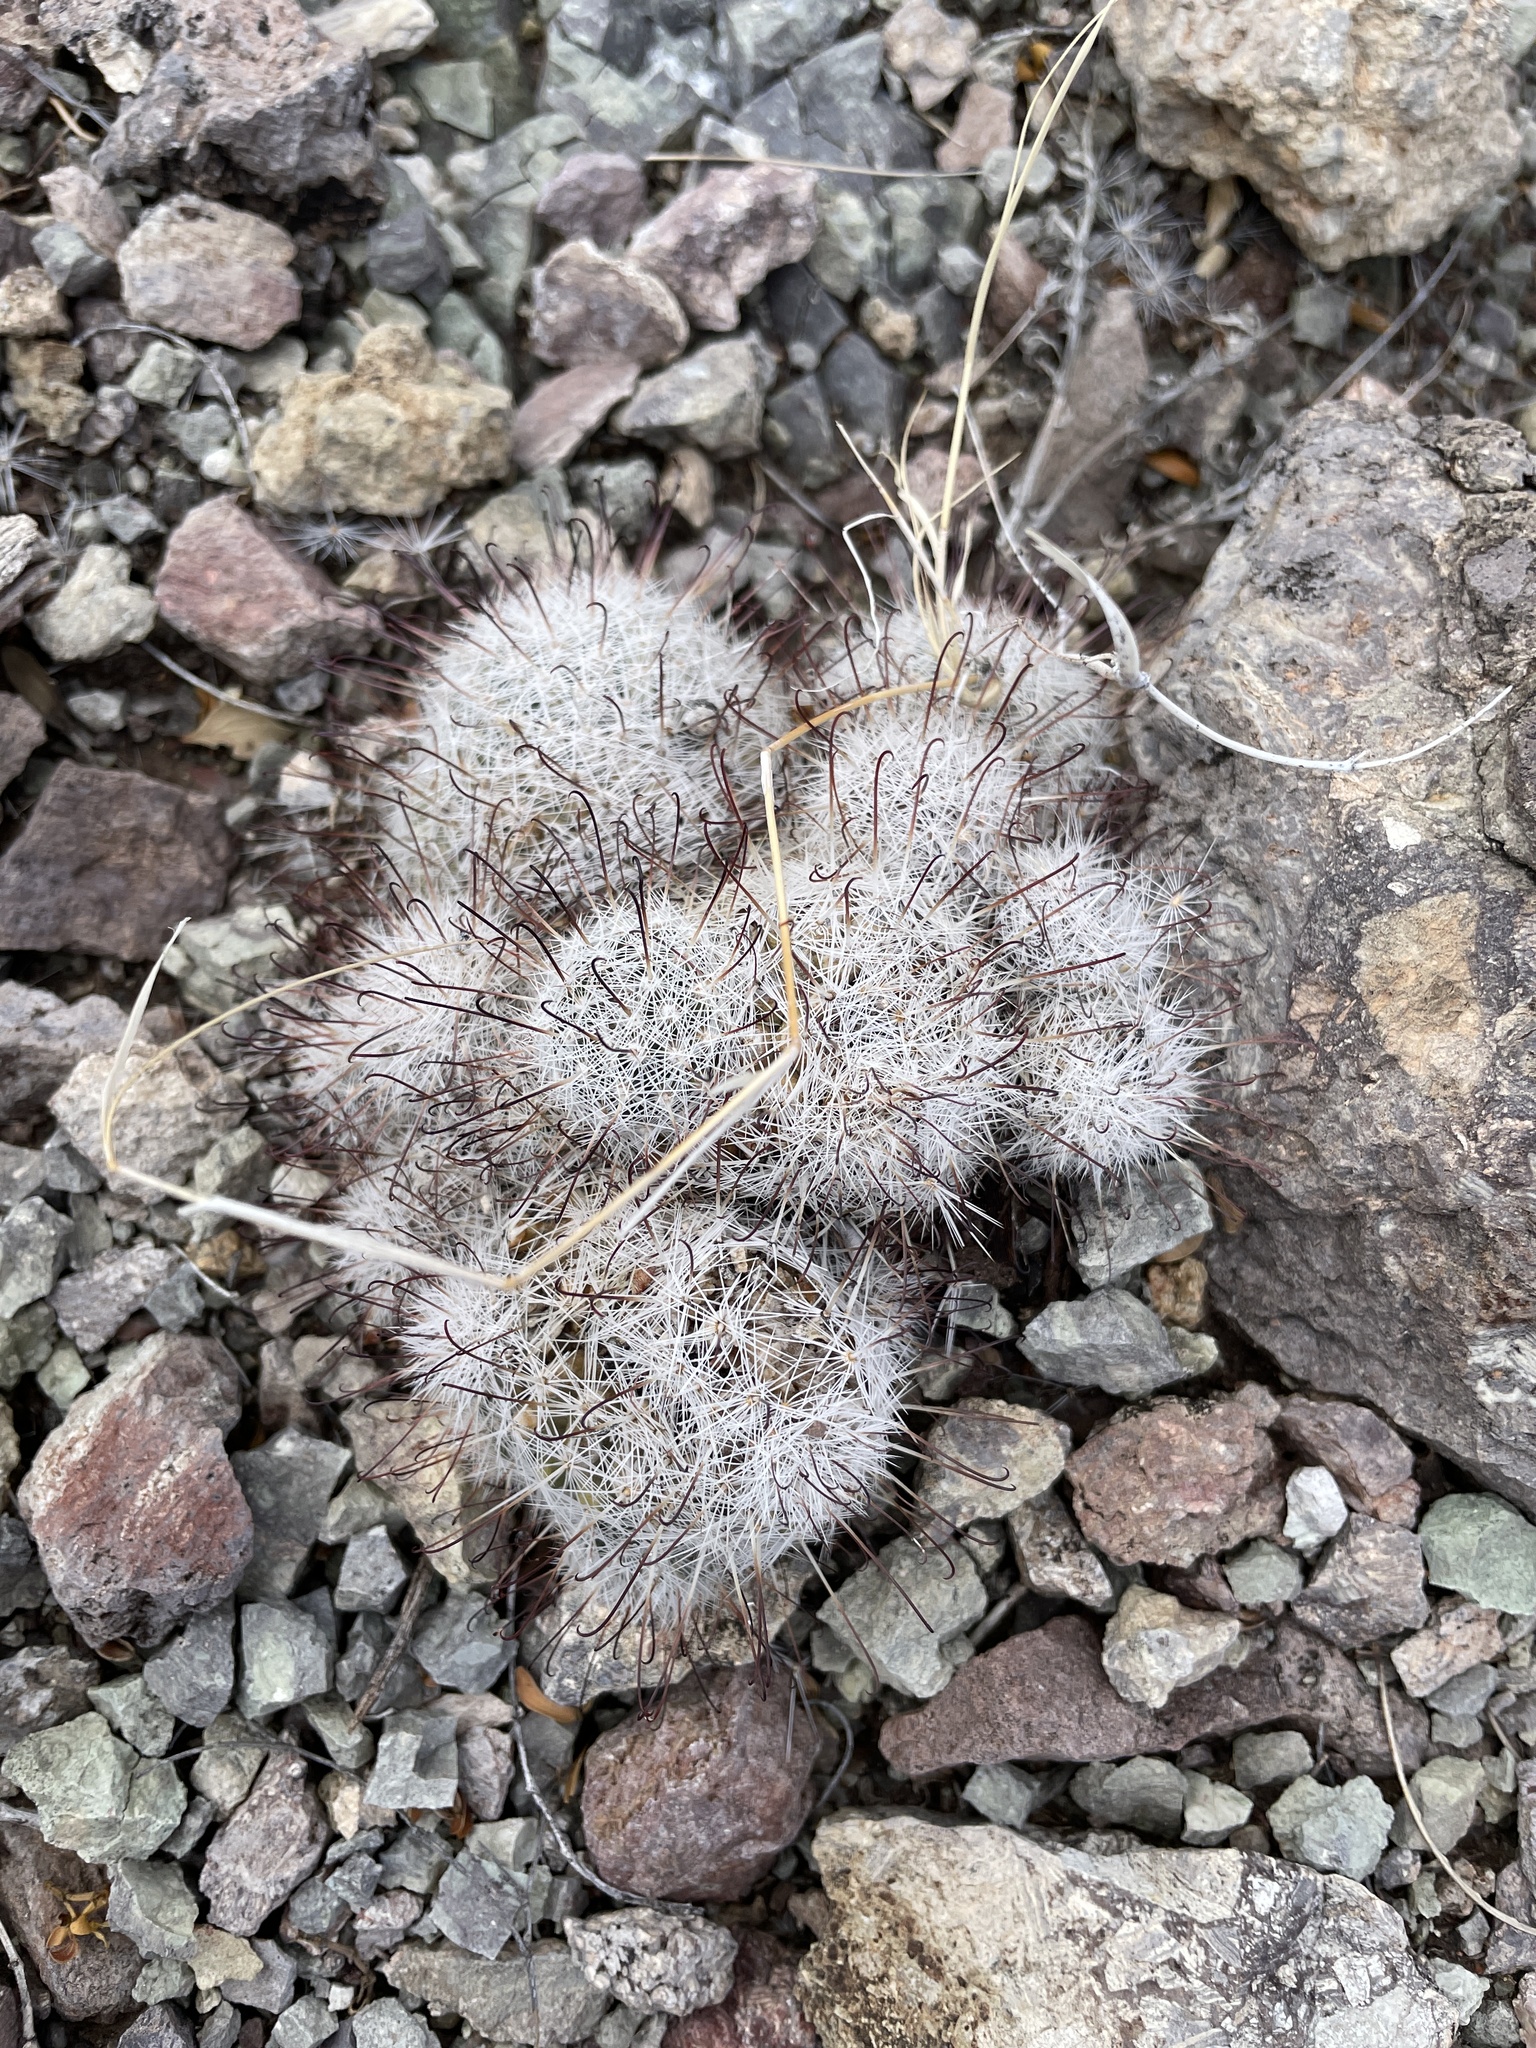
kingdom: Plantae
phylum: Tracheophyta
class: Magnoliopsida
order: Caryophyllales
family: Cactaceae
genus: Cochemiea
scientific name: Cochemiea grahamii
